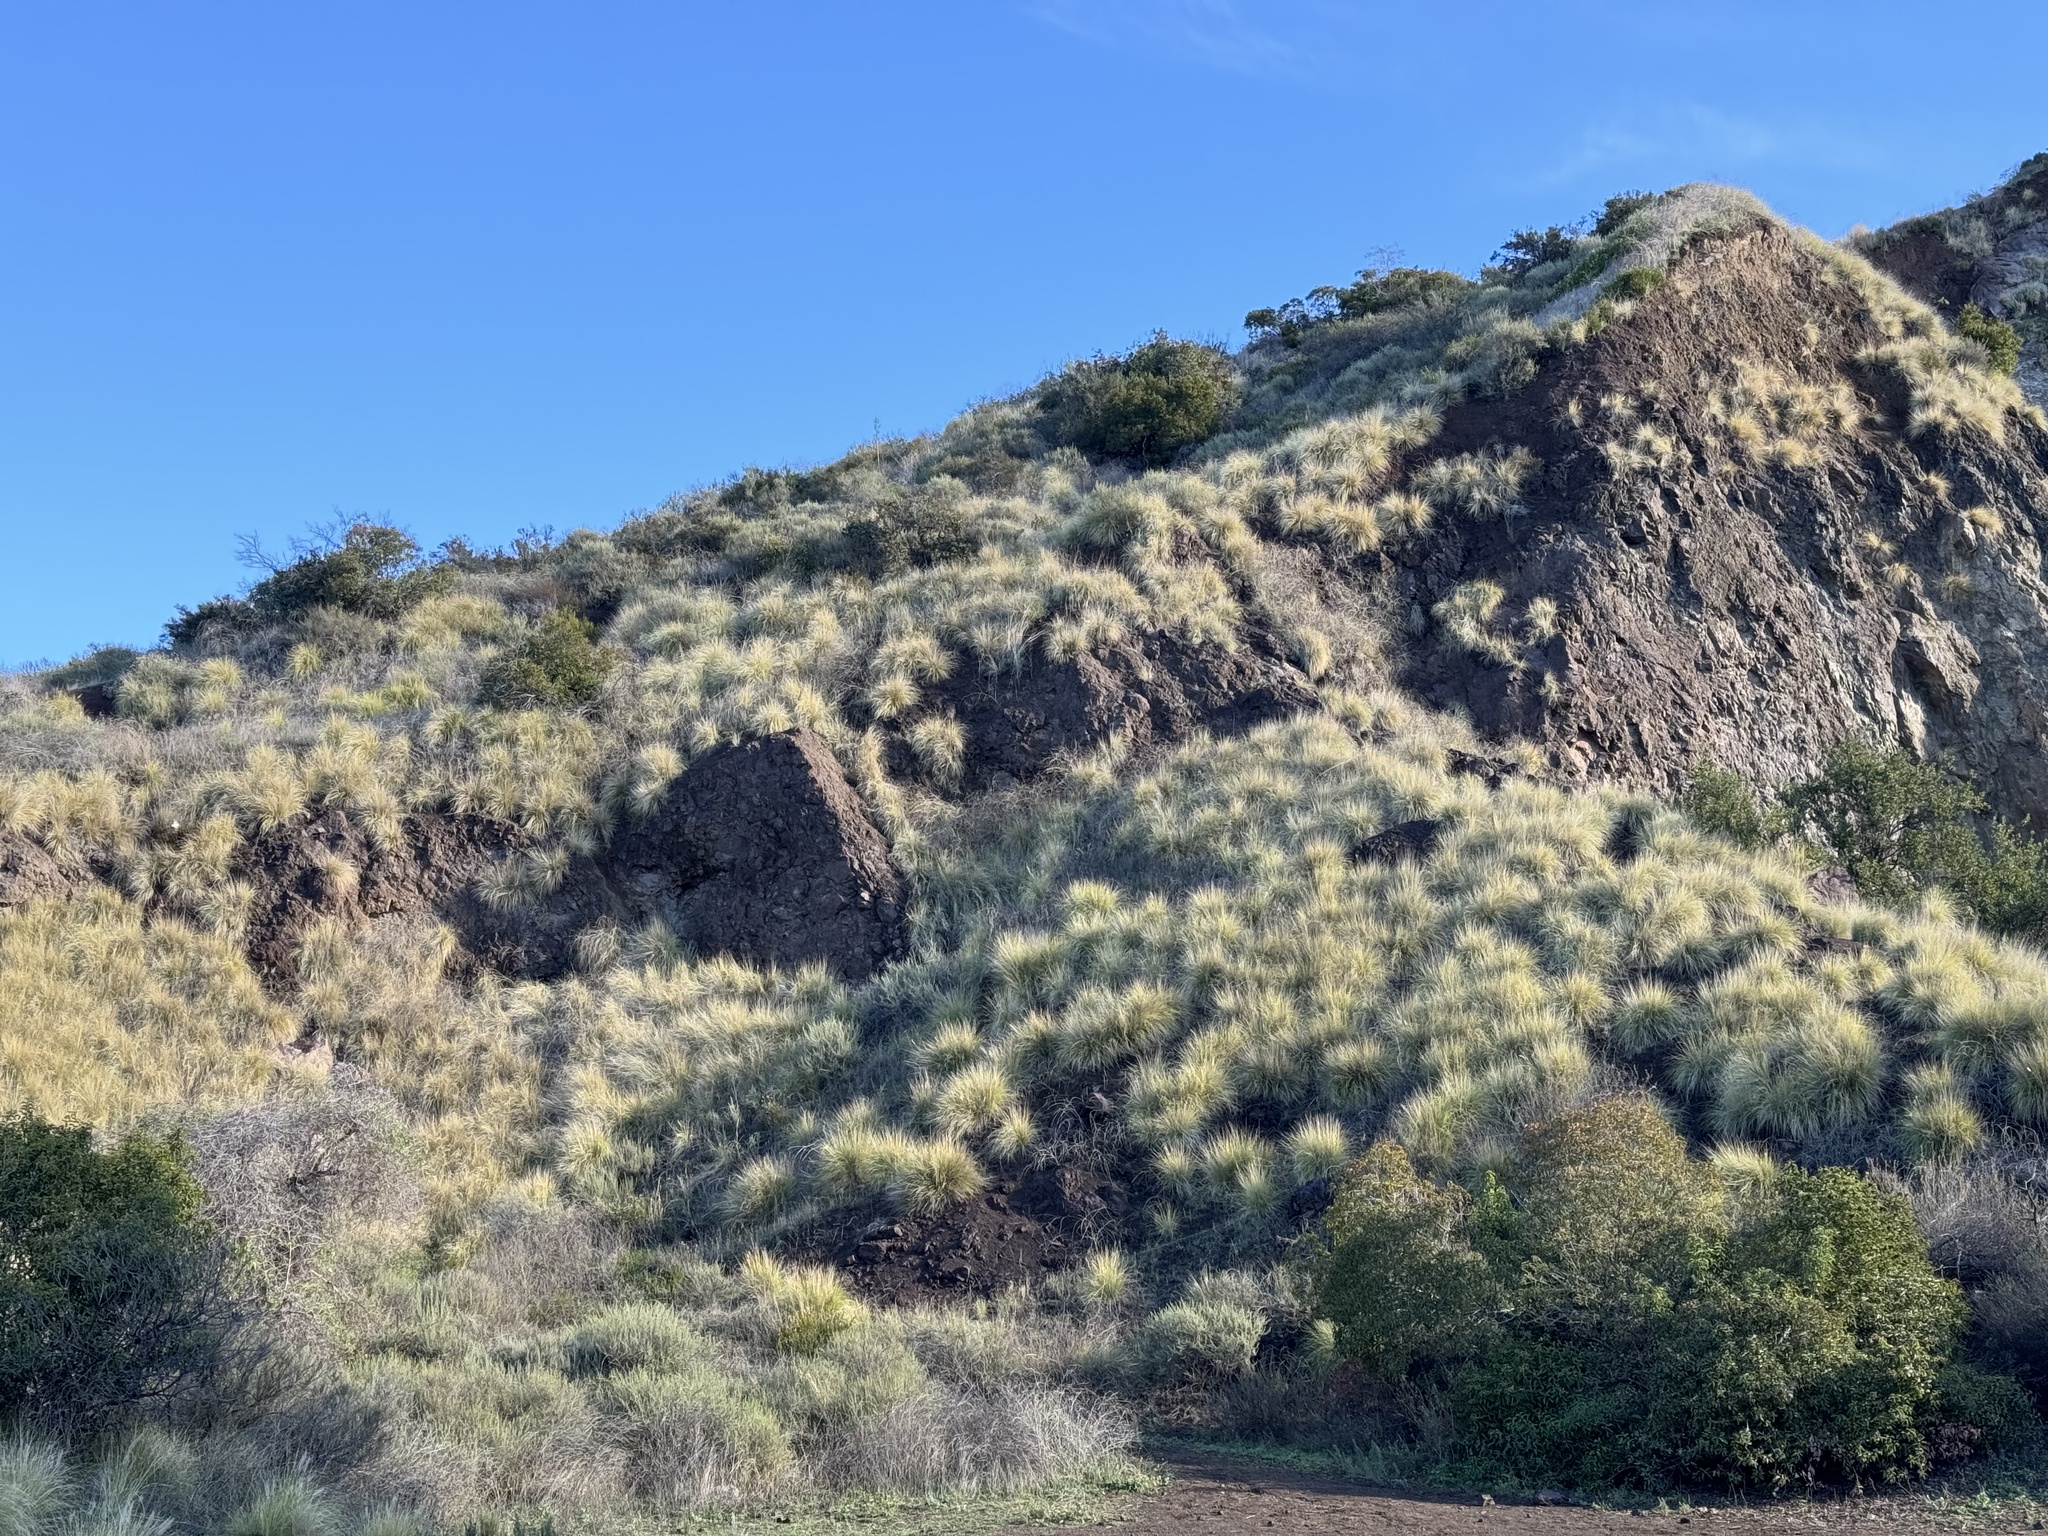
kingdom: Plantae
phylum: Tracheophyta
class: Liliopsida
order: Poales
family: Poaceae
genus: Cenchrus
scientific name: Cenchrus setaceus
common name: Crimson fountaingrass
